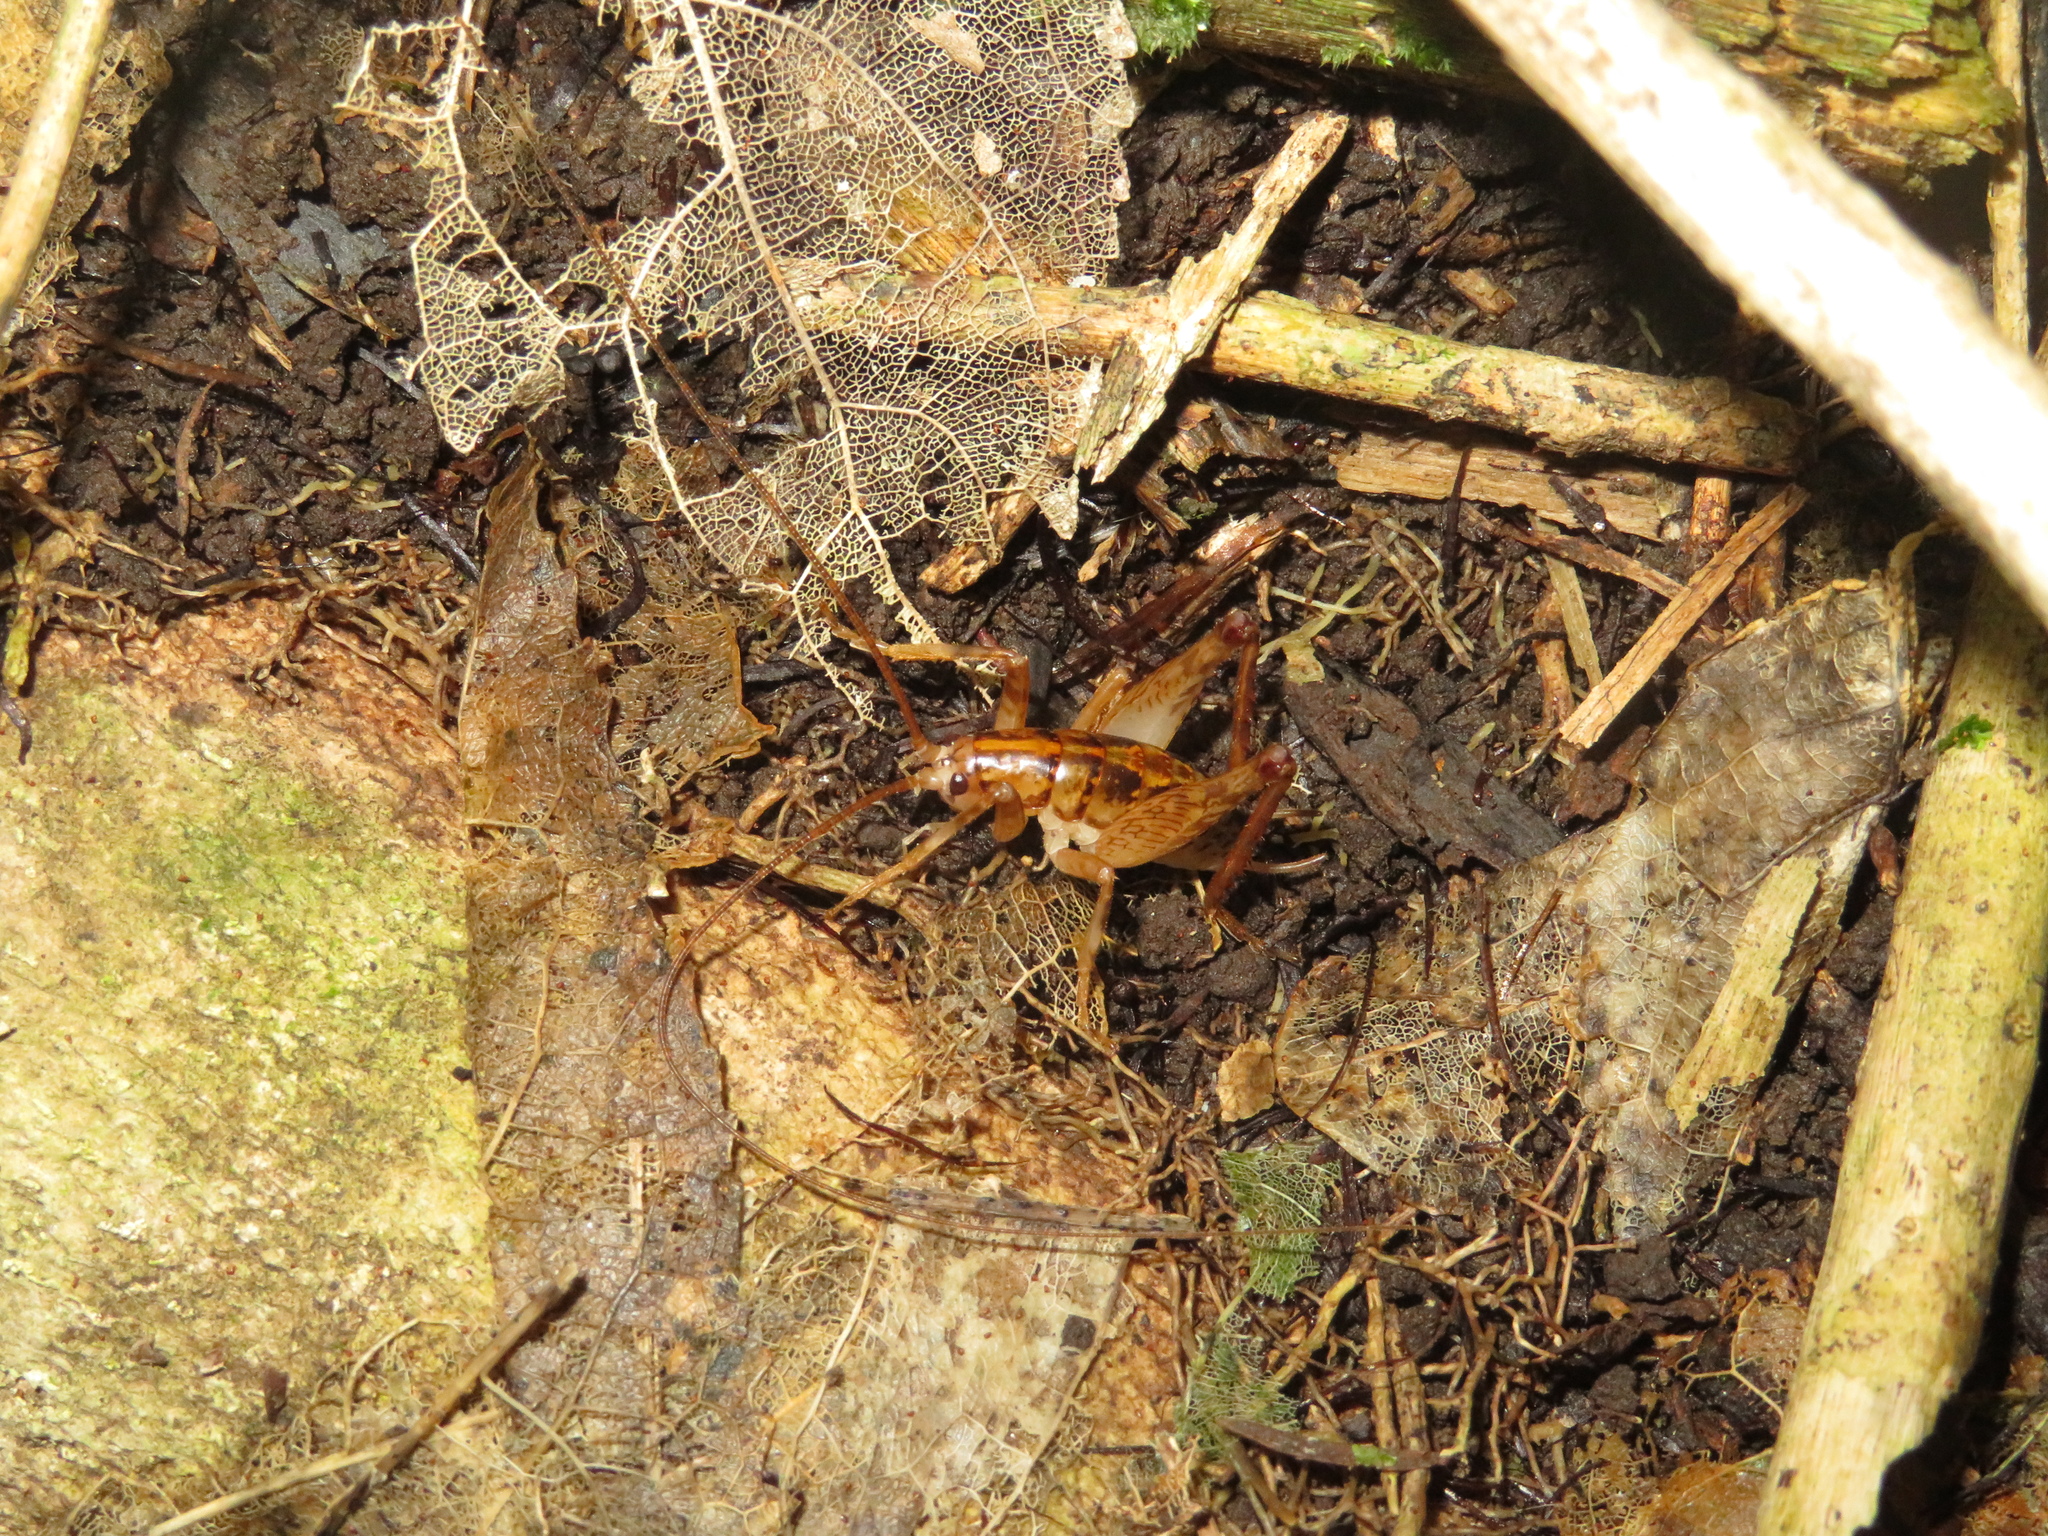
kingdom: Animalia
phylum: Arthropoda
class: Insecta
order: Orthoptera
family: Rhaphidophoridae
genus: Talitropsis
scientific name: Talitropsis sedilloti
